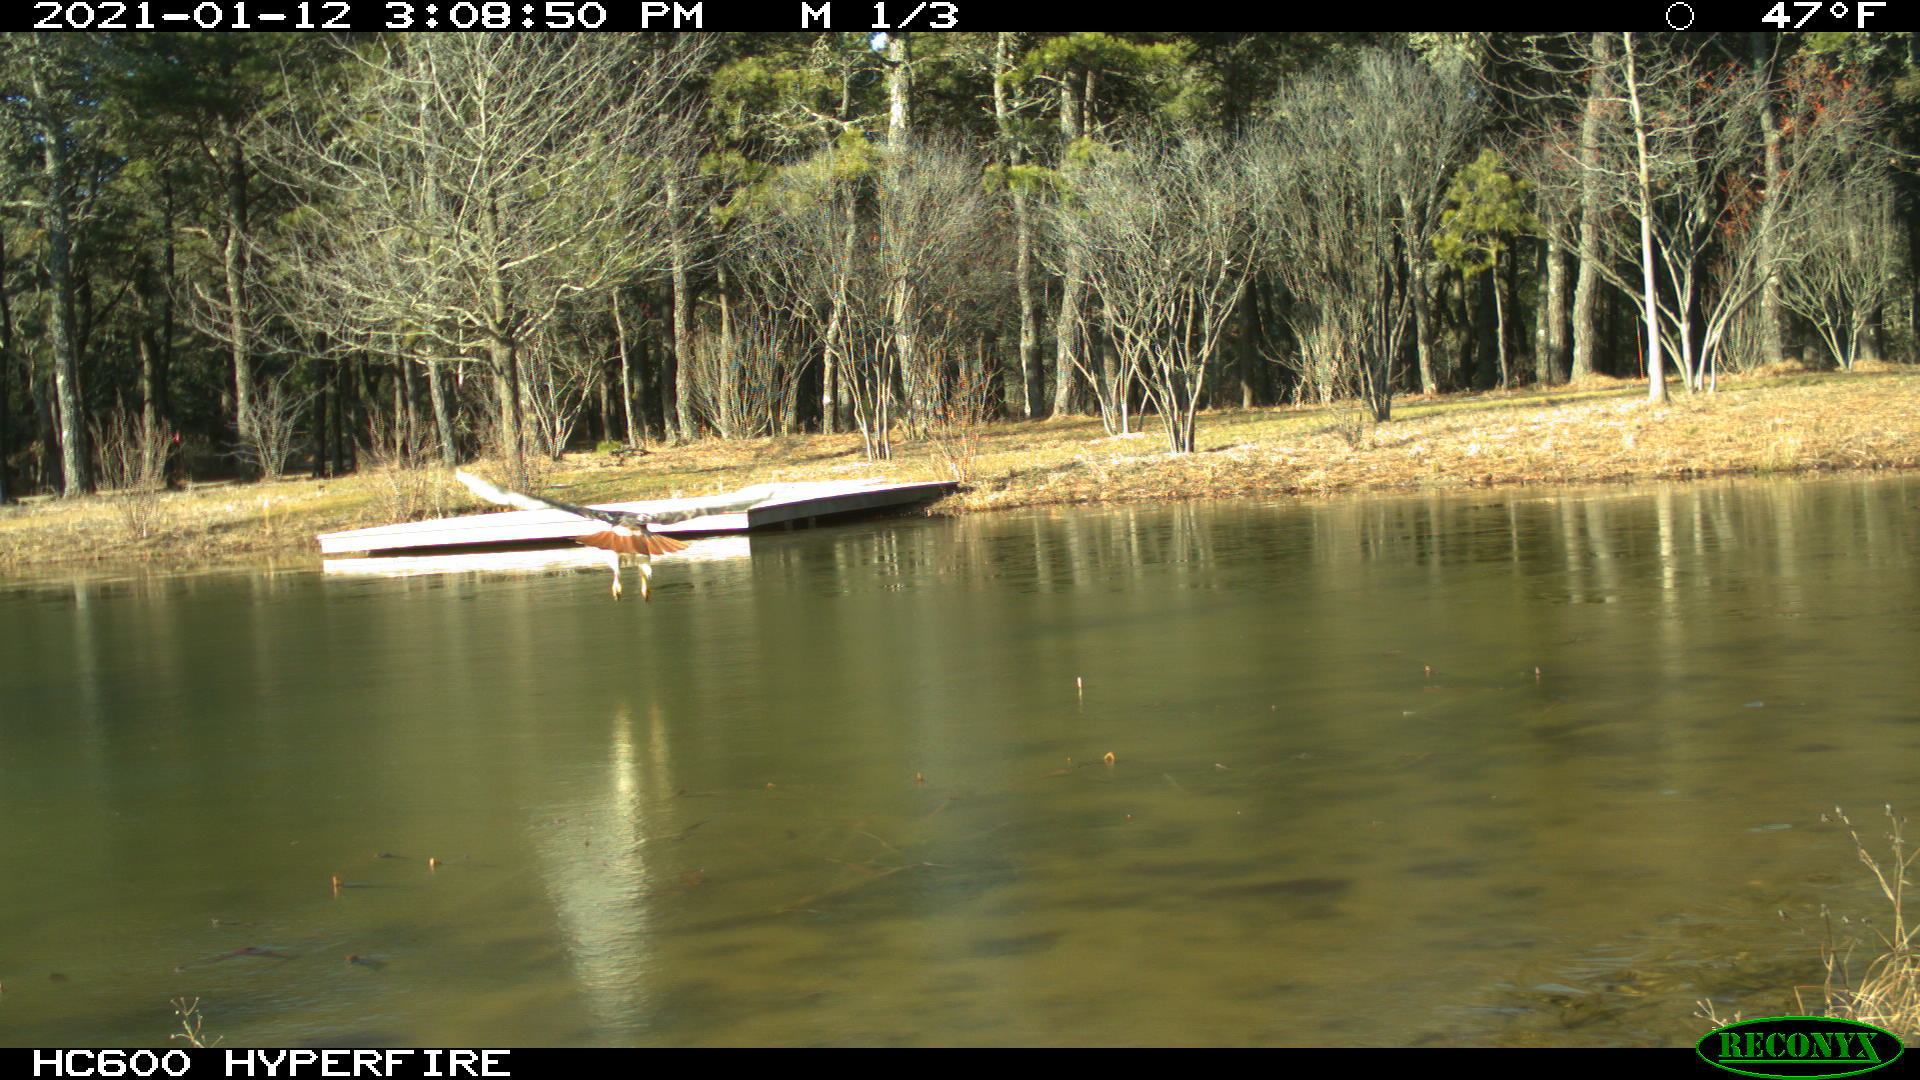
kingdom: Animalia
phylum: Chordata
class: Aves
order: Accipitriformes
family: Accipitridae
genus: Buteo
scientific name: Buteo jamaicensis
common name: Red-tailed hawk
